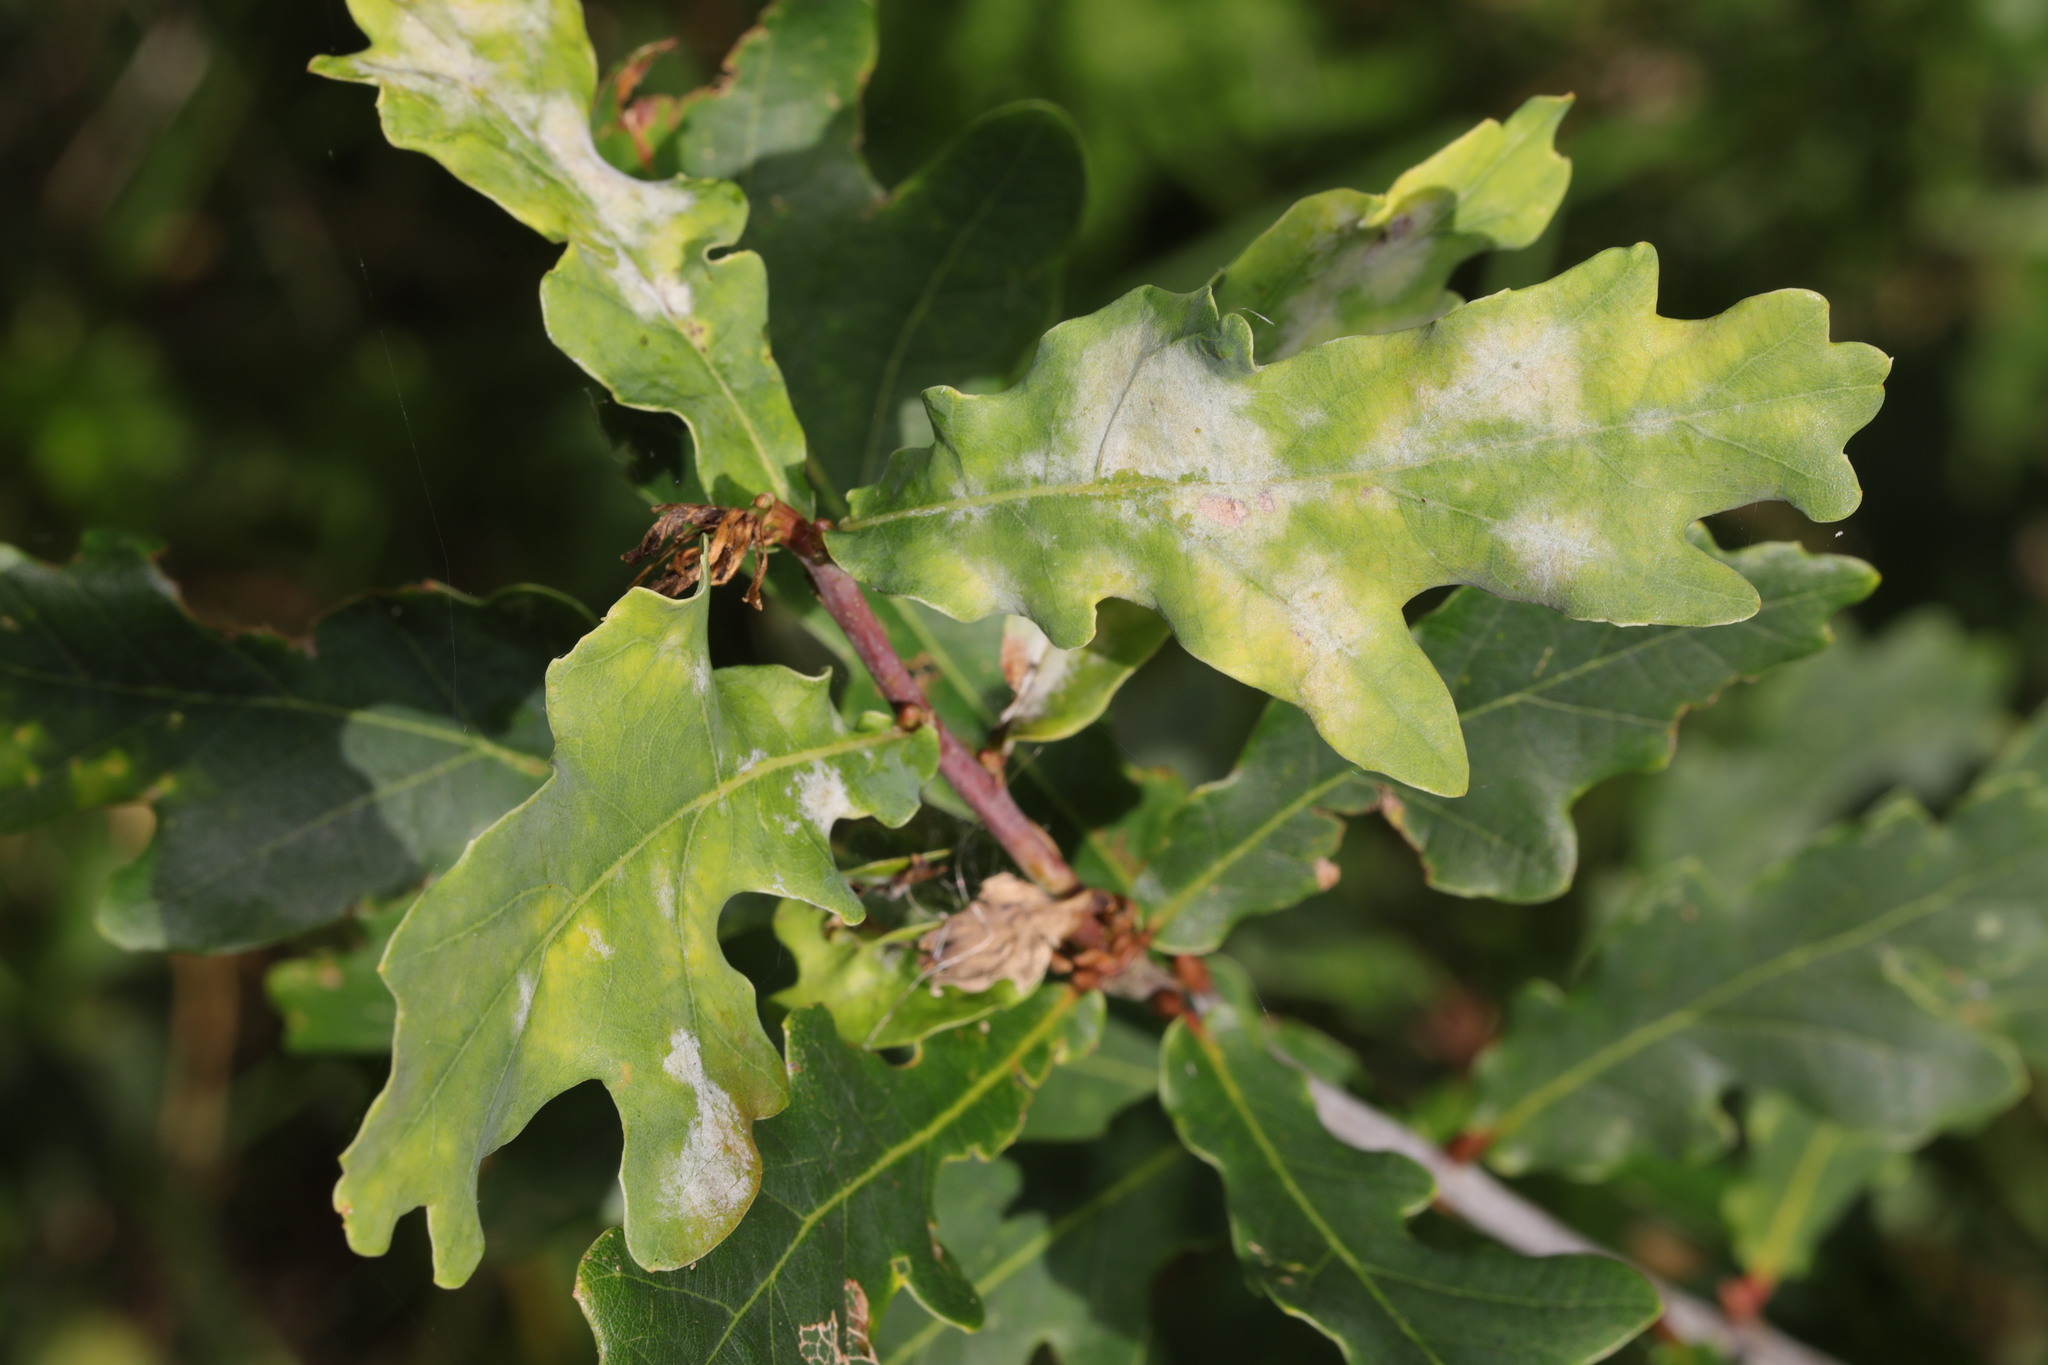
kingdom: Fungi
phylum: Ascomycota
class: Leotiomycetes
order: Helotiales
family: Erysiphaceae
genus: Erysiphe
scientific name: Erysiphe alphitoides
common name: Oak mildew
